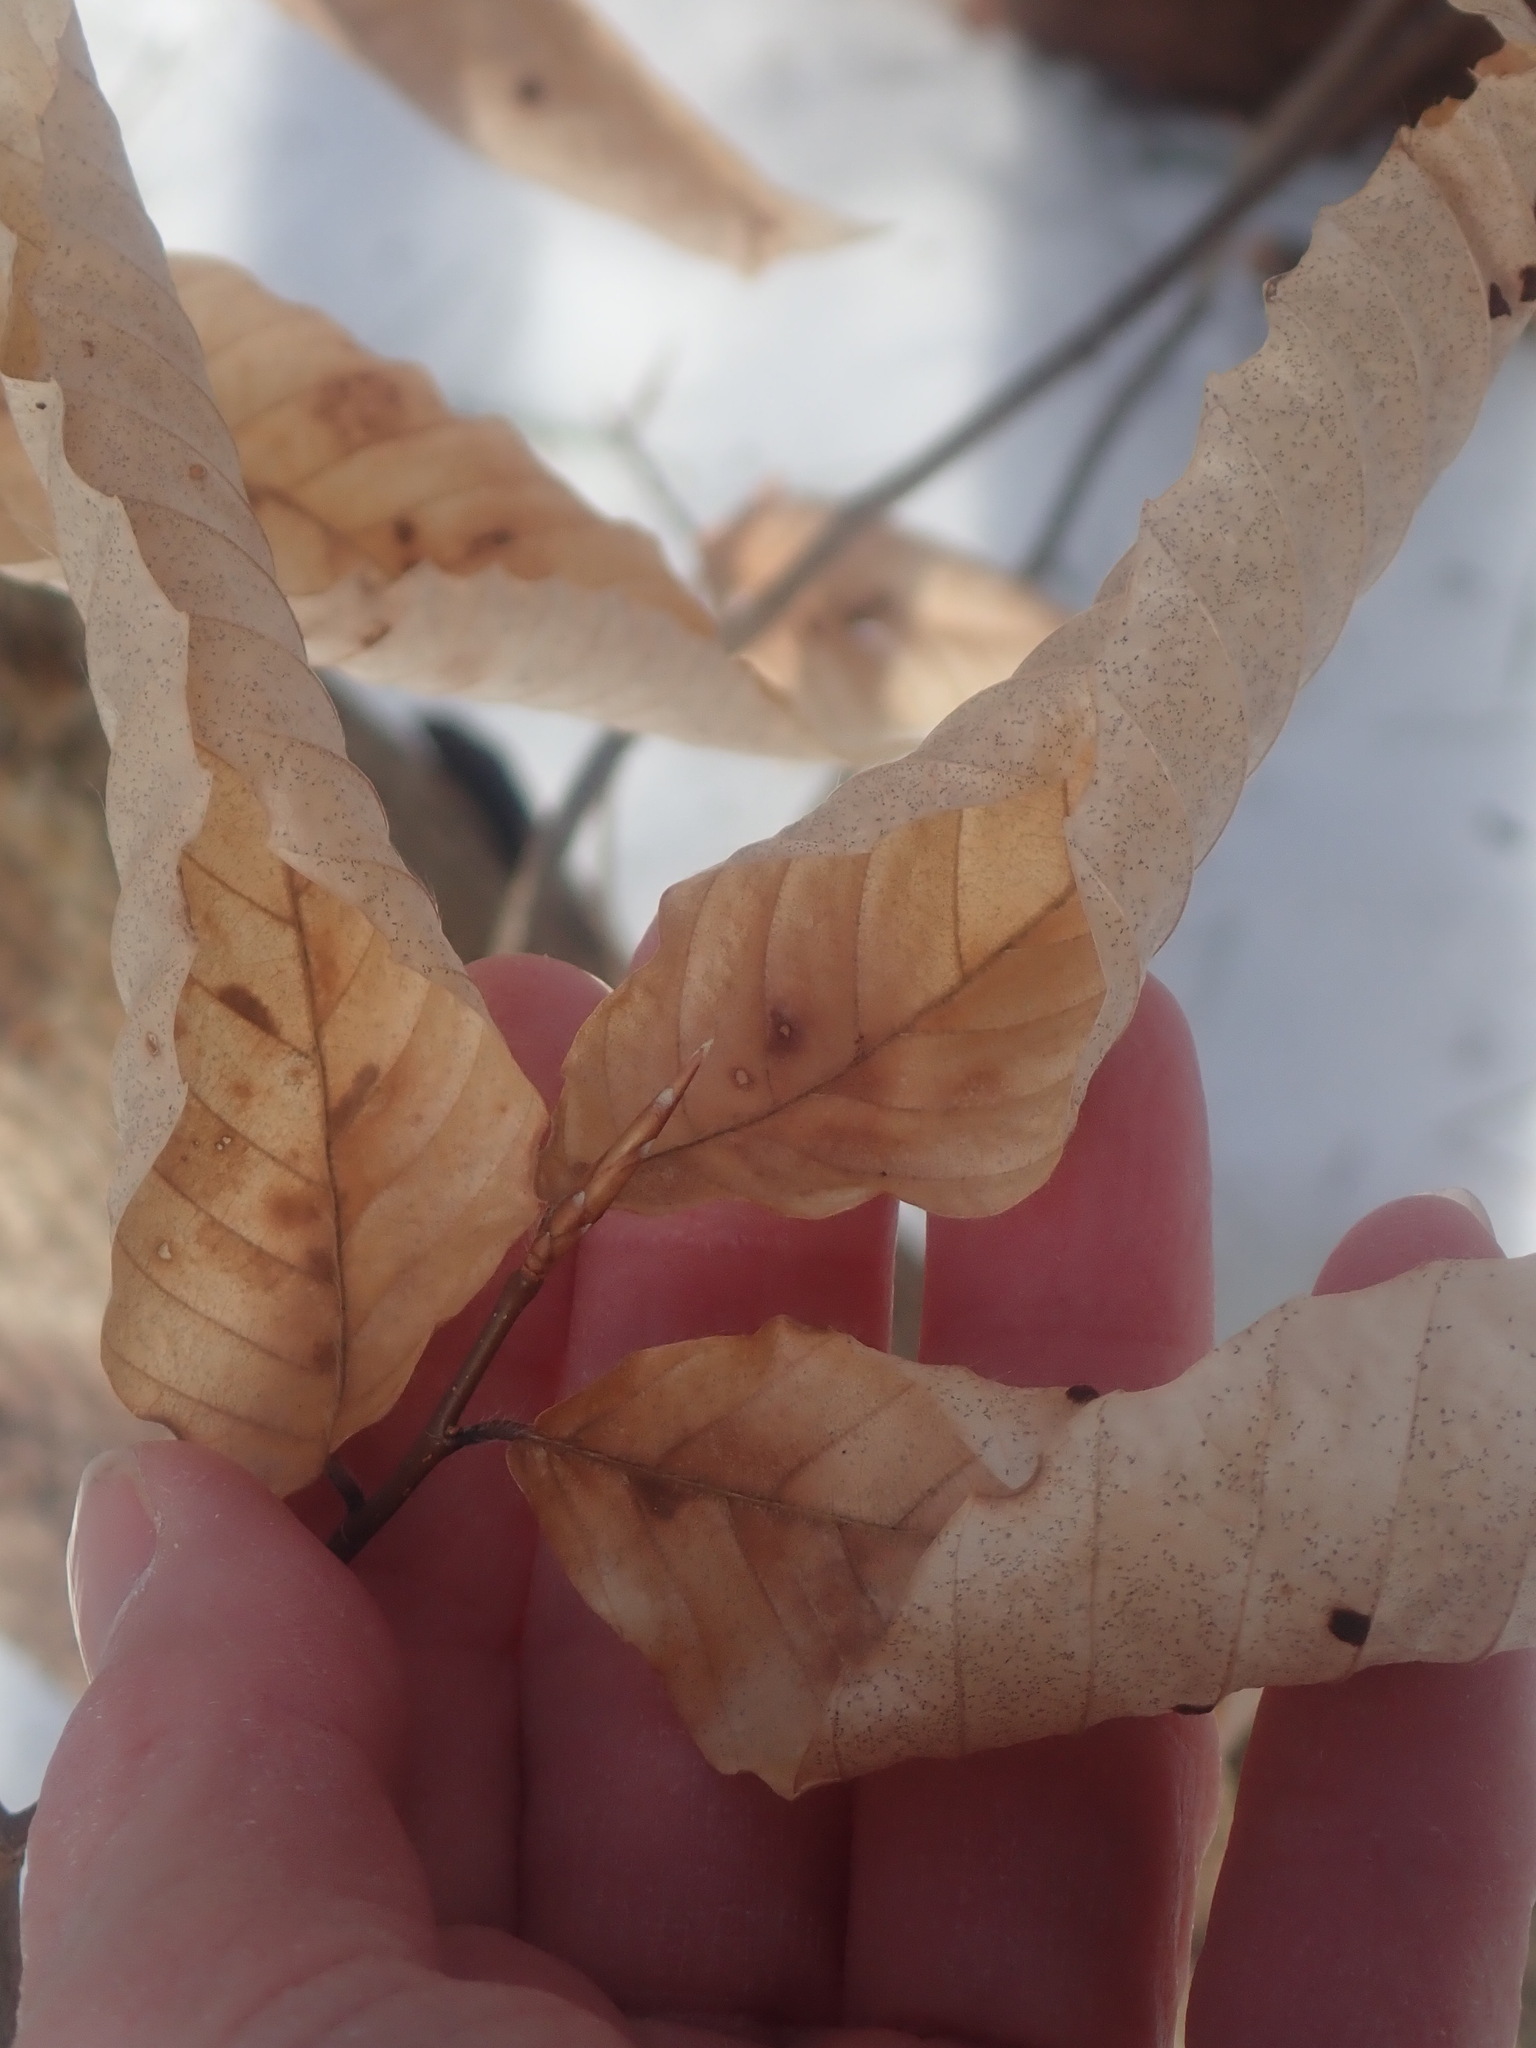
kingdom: Plantae
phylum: Tracheophyta
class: Magnoliopsida
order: Fagales
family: Fagaceae
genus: Fagus
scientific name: Fagus grandifolia
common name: American beech
